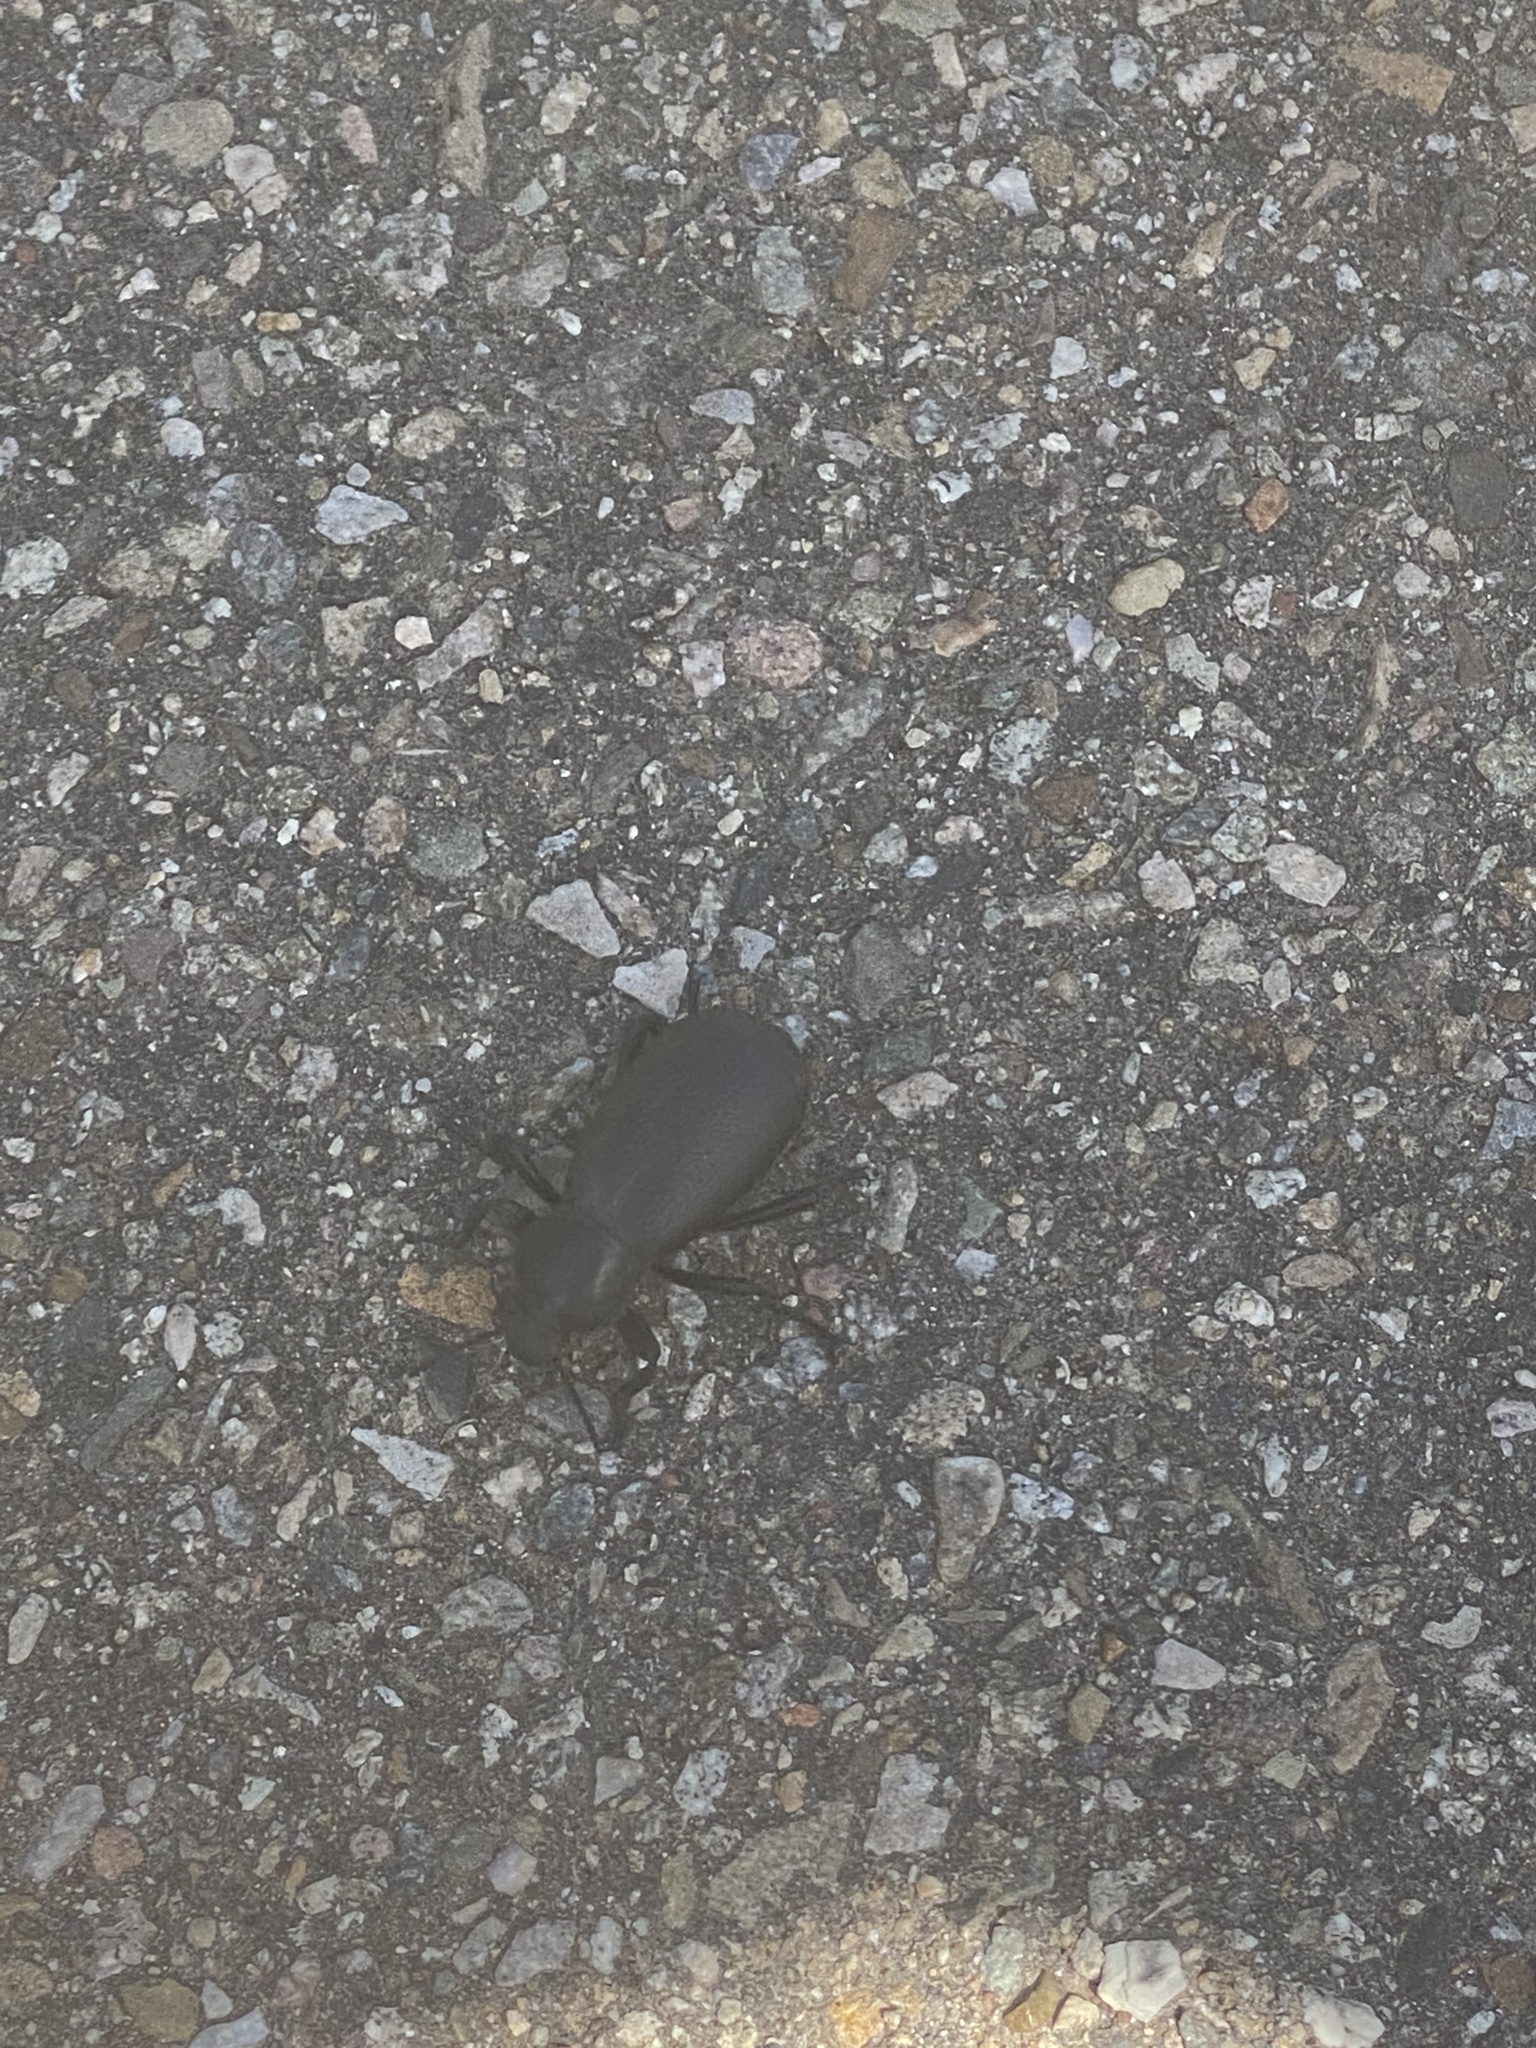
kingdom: Animalia
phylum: Arthropoda
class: Insecta
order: Coleoptera
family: Tenebrionidae
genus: Eleodes
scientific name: Eleodes obscura
